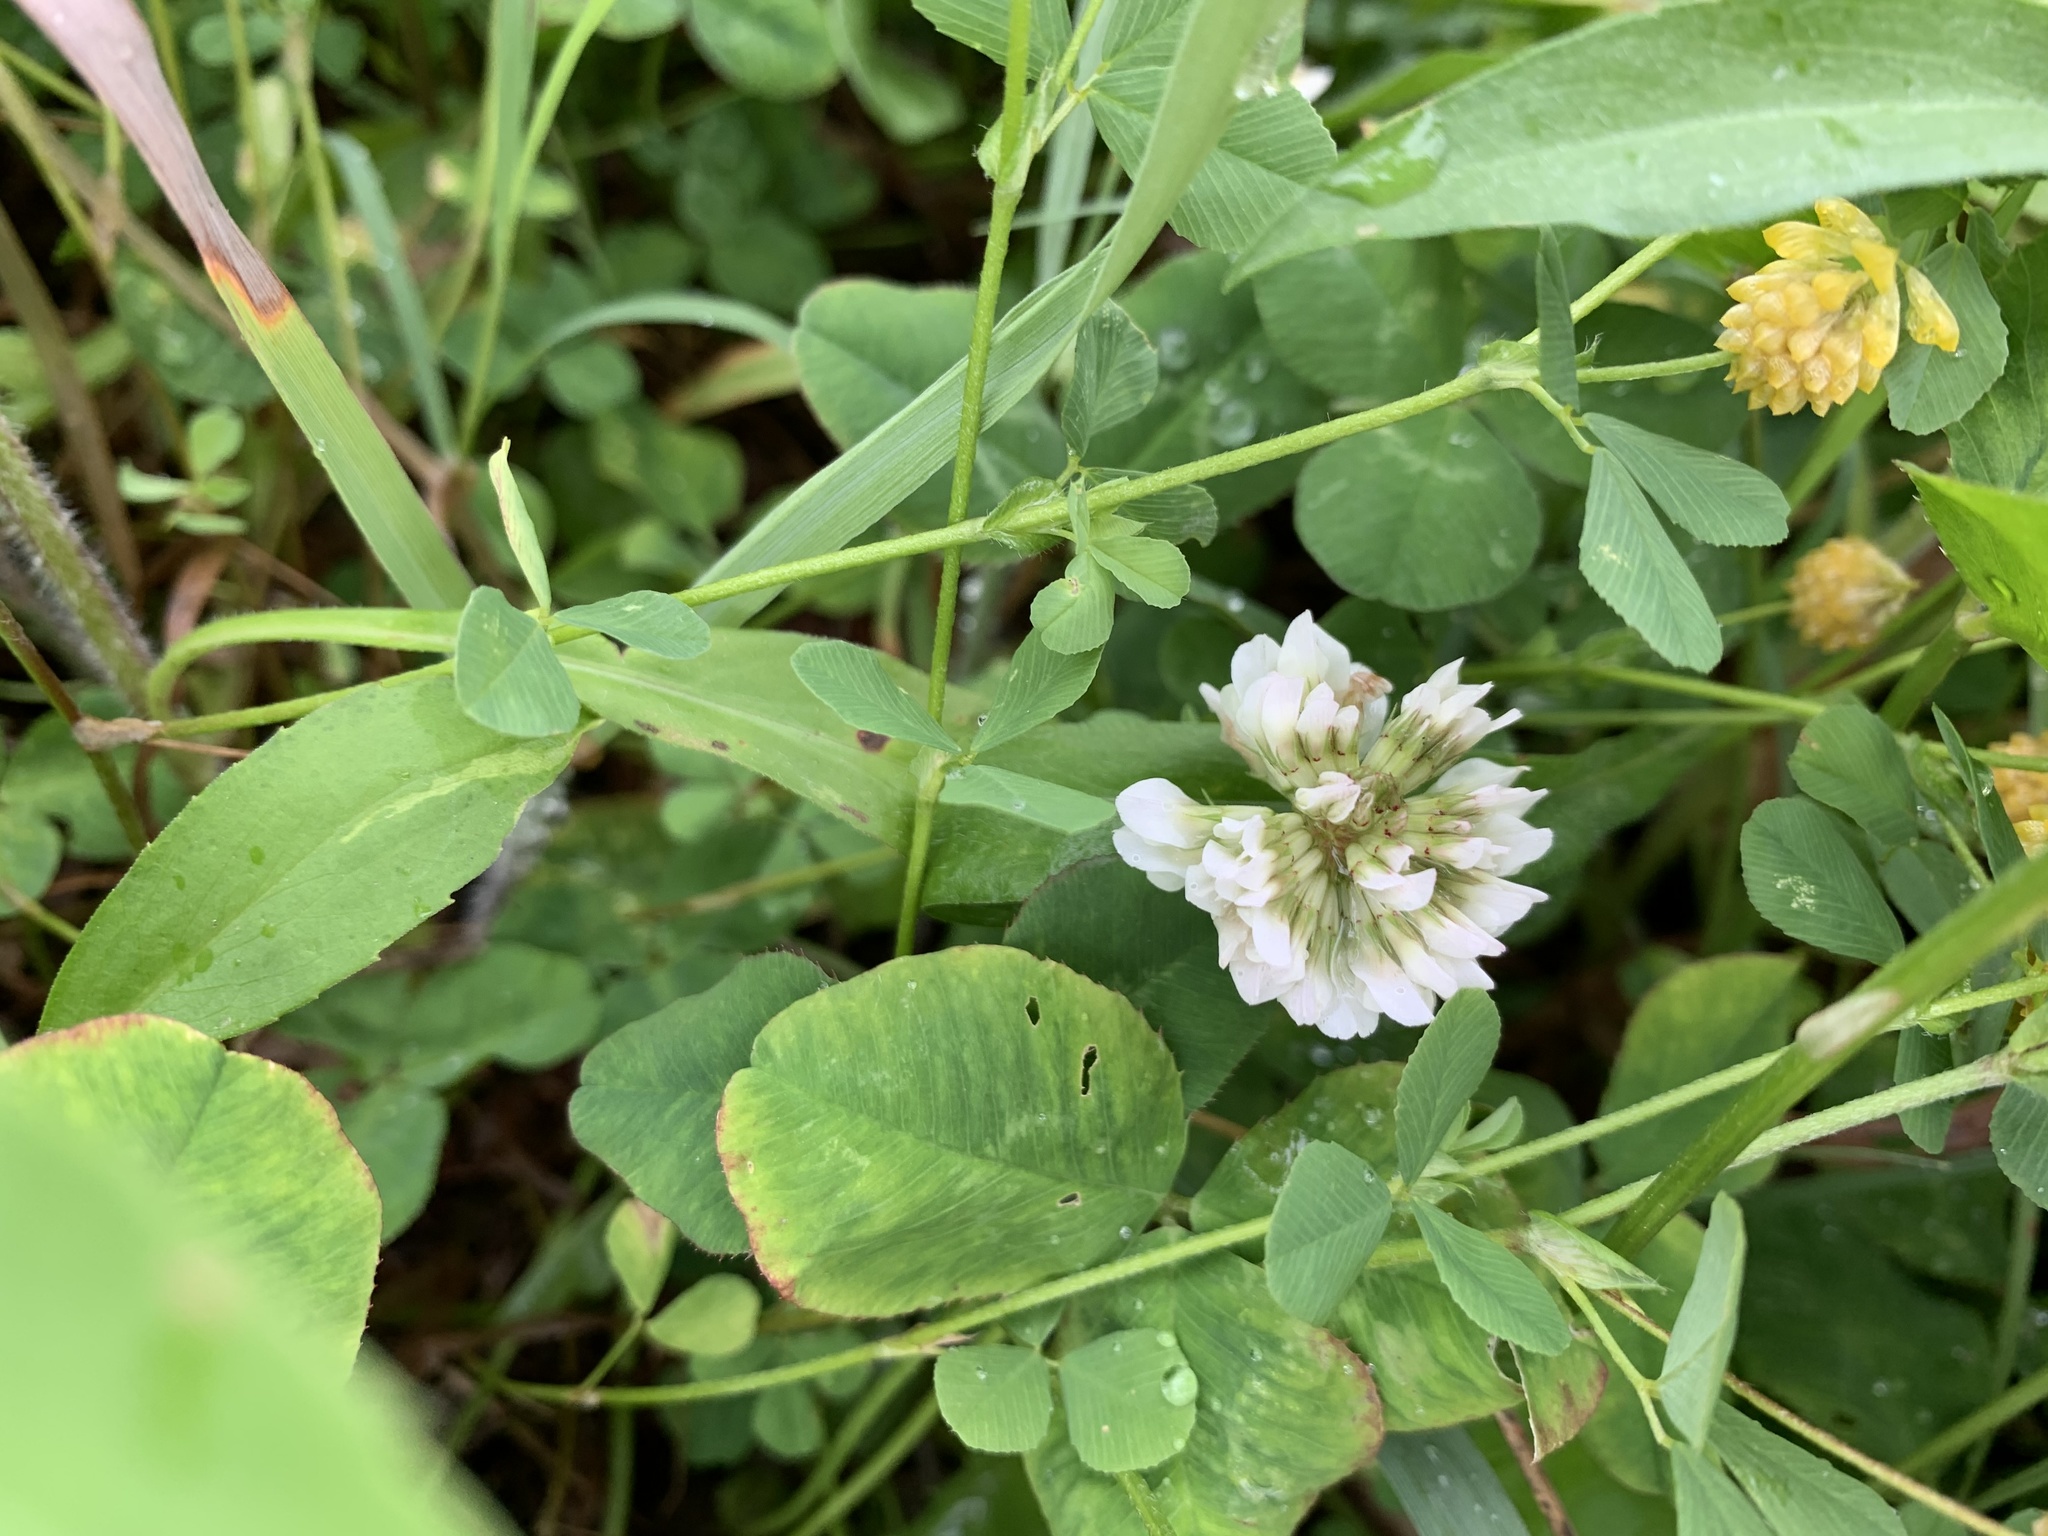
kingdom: Plantae
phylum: Tracheophyta
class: Magnoliopsida
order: Fabales
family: Fabaceae
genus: Trifolium
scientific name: Trifolium repens
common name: White clover
